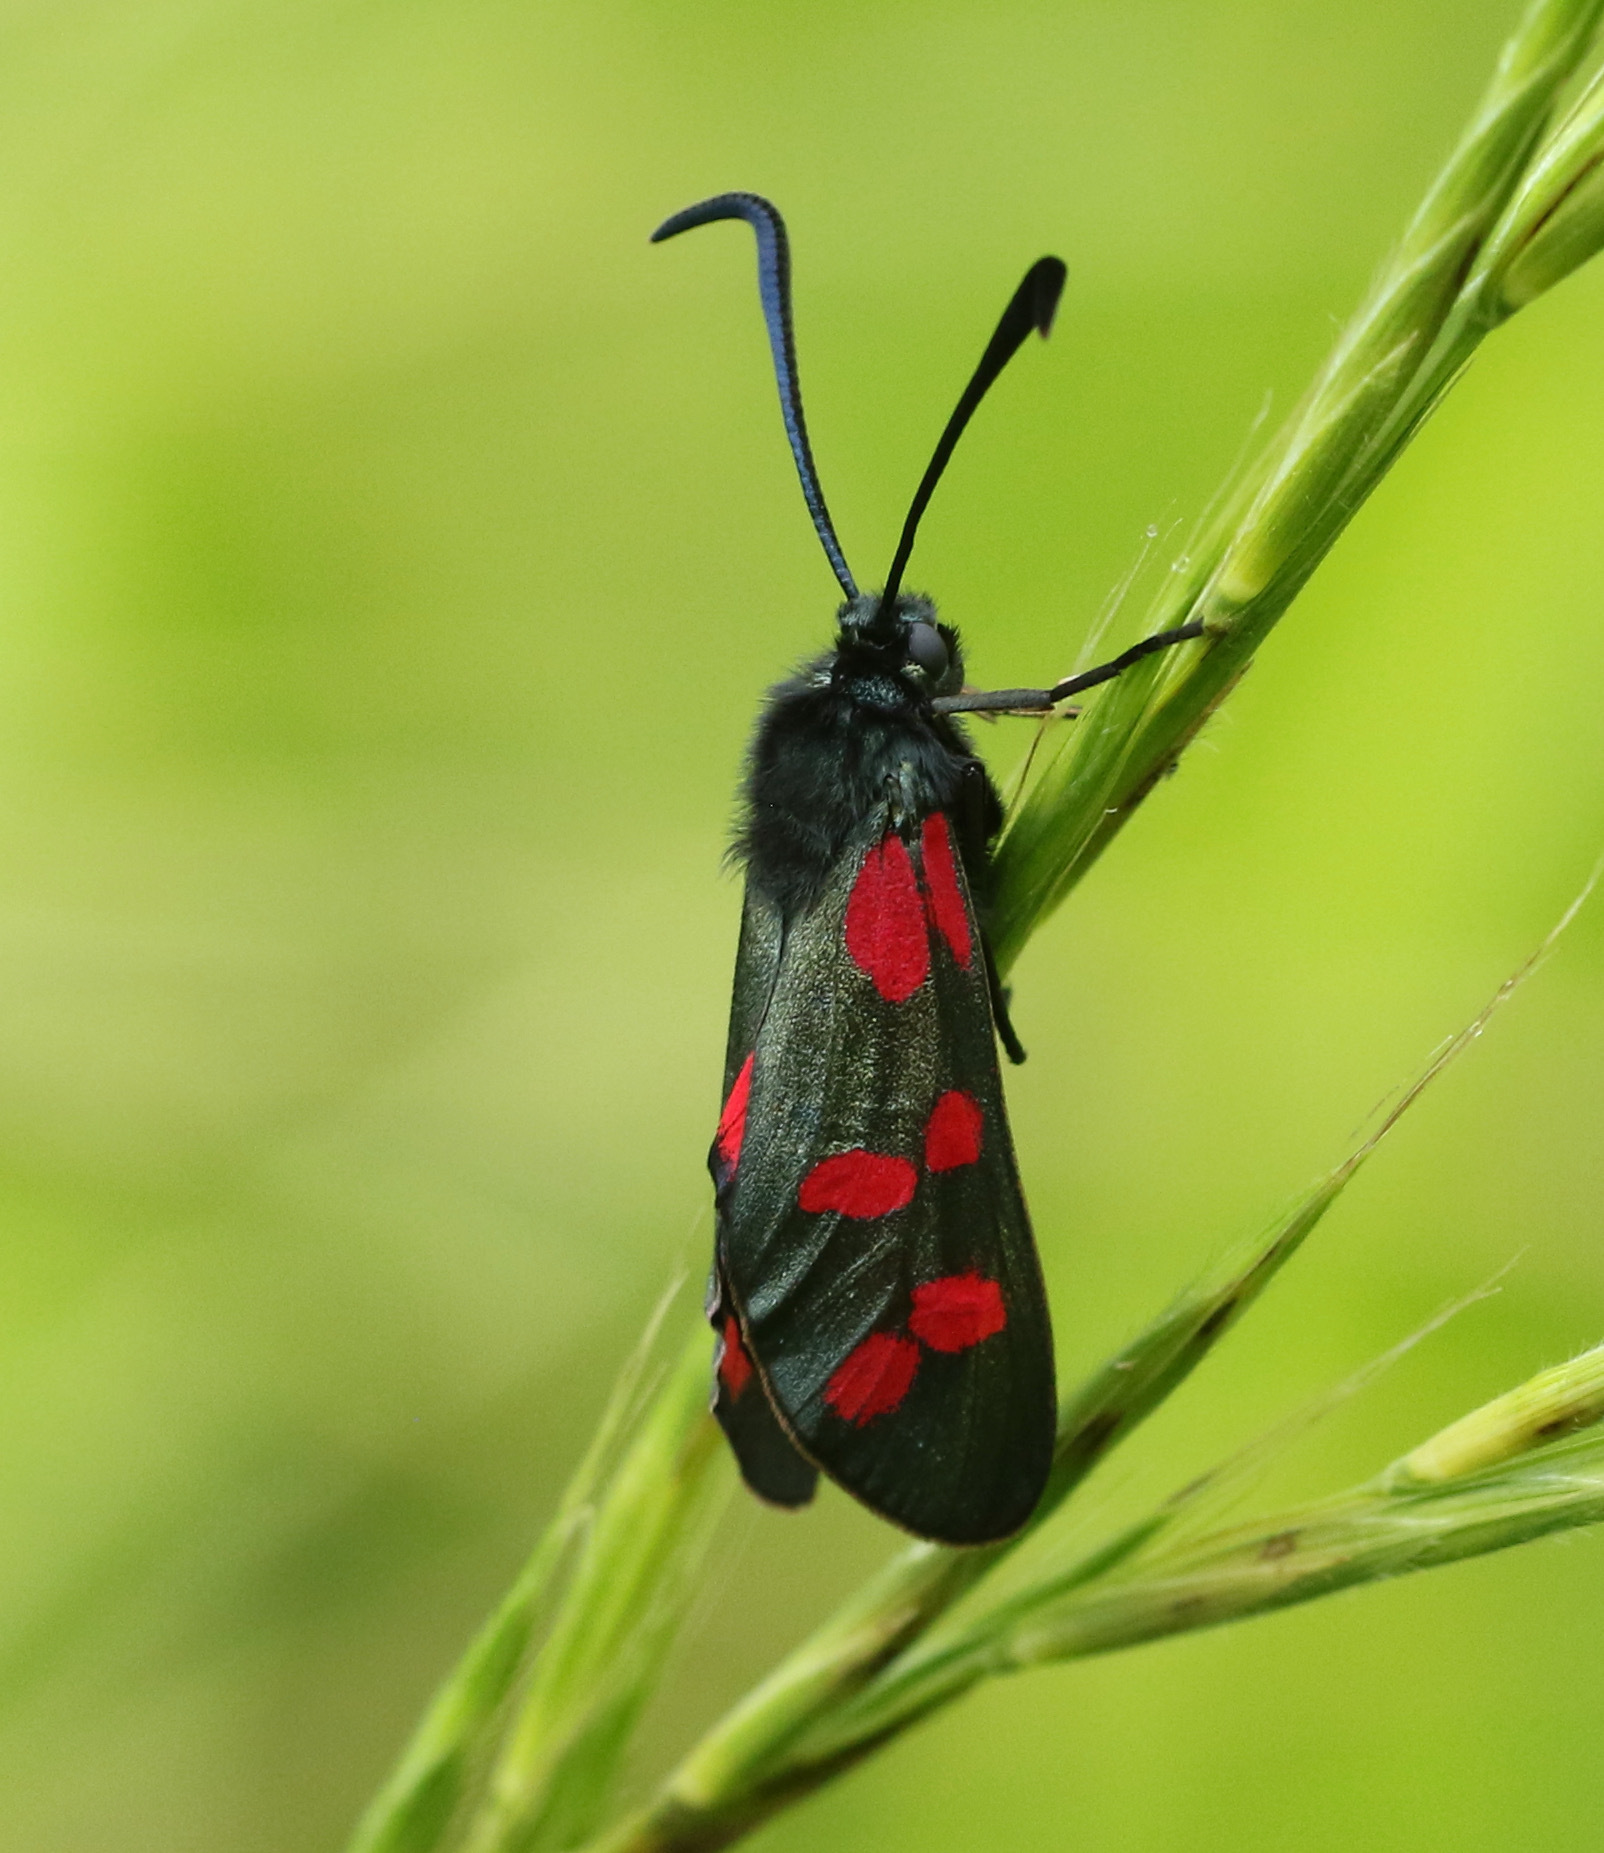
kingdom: Animalia
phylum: Arthropoda
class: Insecta
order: Lepidoptera
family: Zygaenidae
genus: Zygaena
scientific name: Zygaena filipendulae
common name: Six-spot burnet
